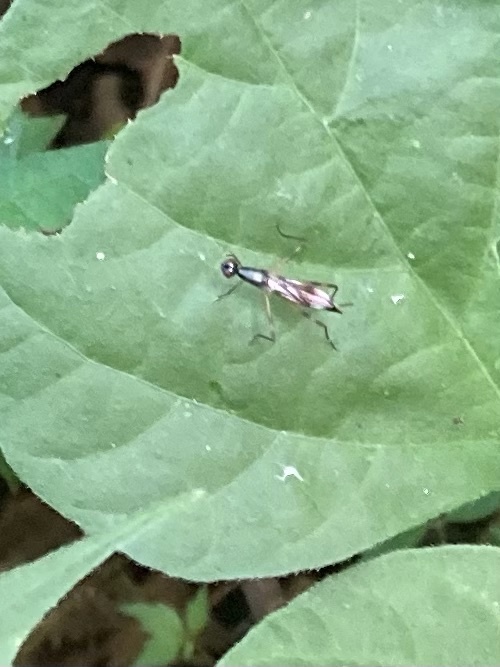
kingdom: Animalia
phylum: Arthropoda
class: Insecta
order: Diptera
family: Micropezidae
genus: Rainieria
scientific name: Rainieria antennaepes
